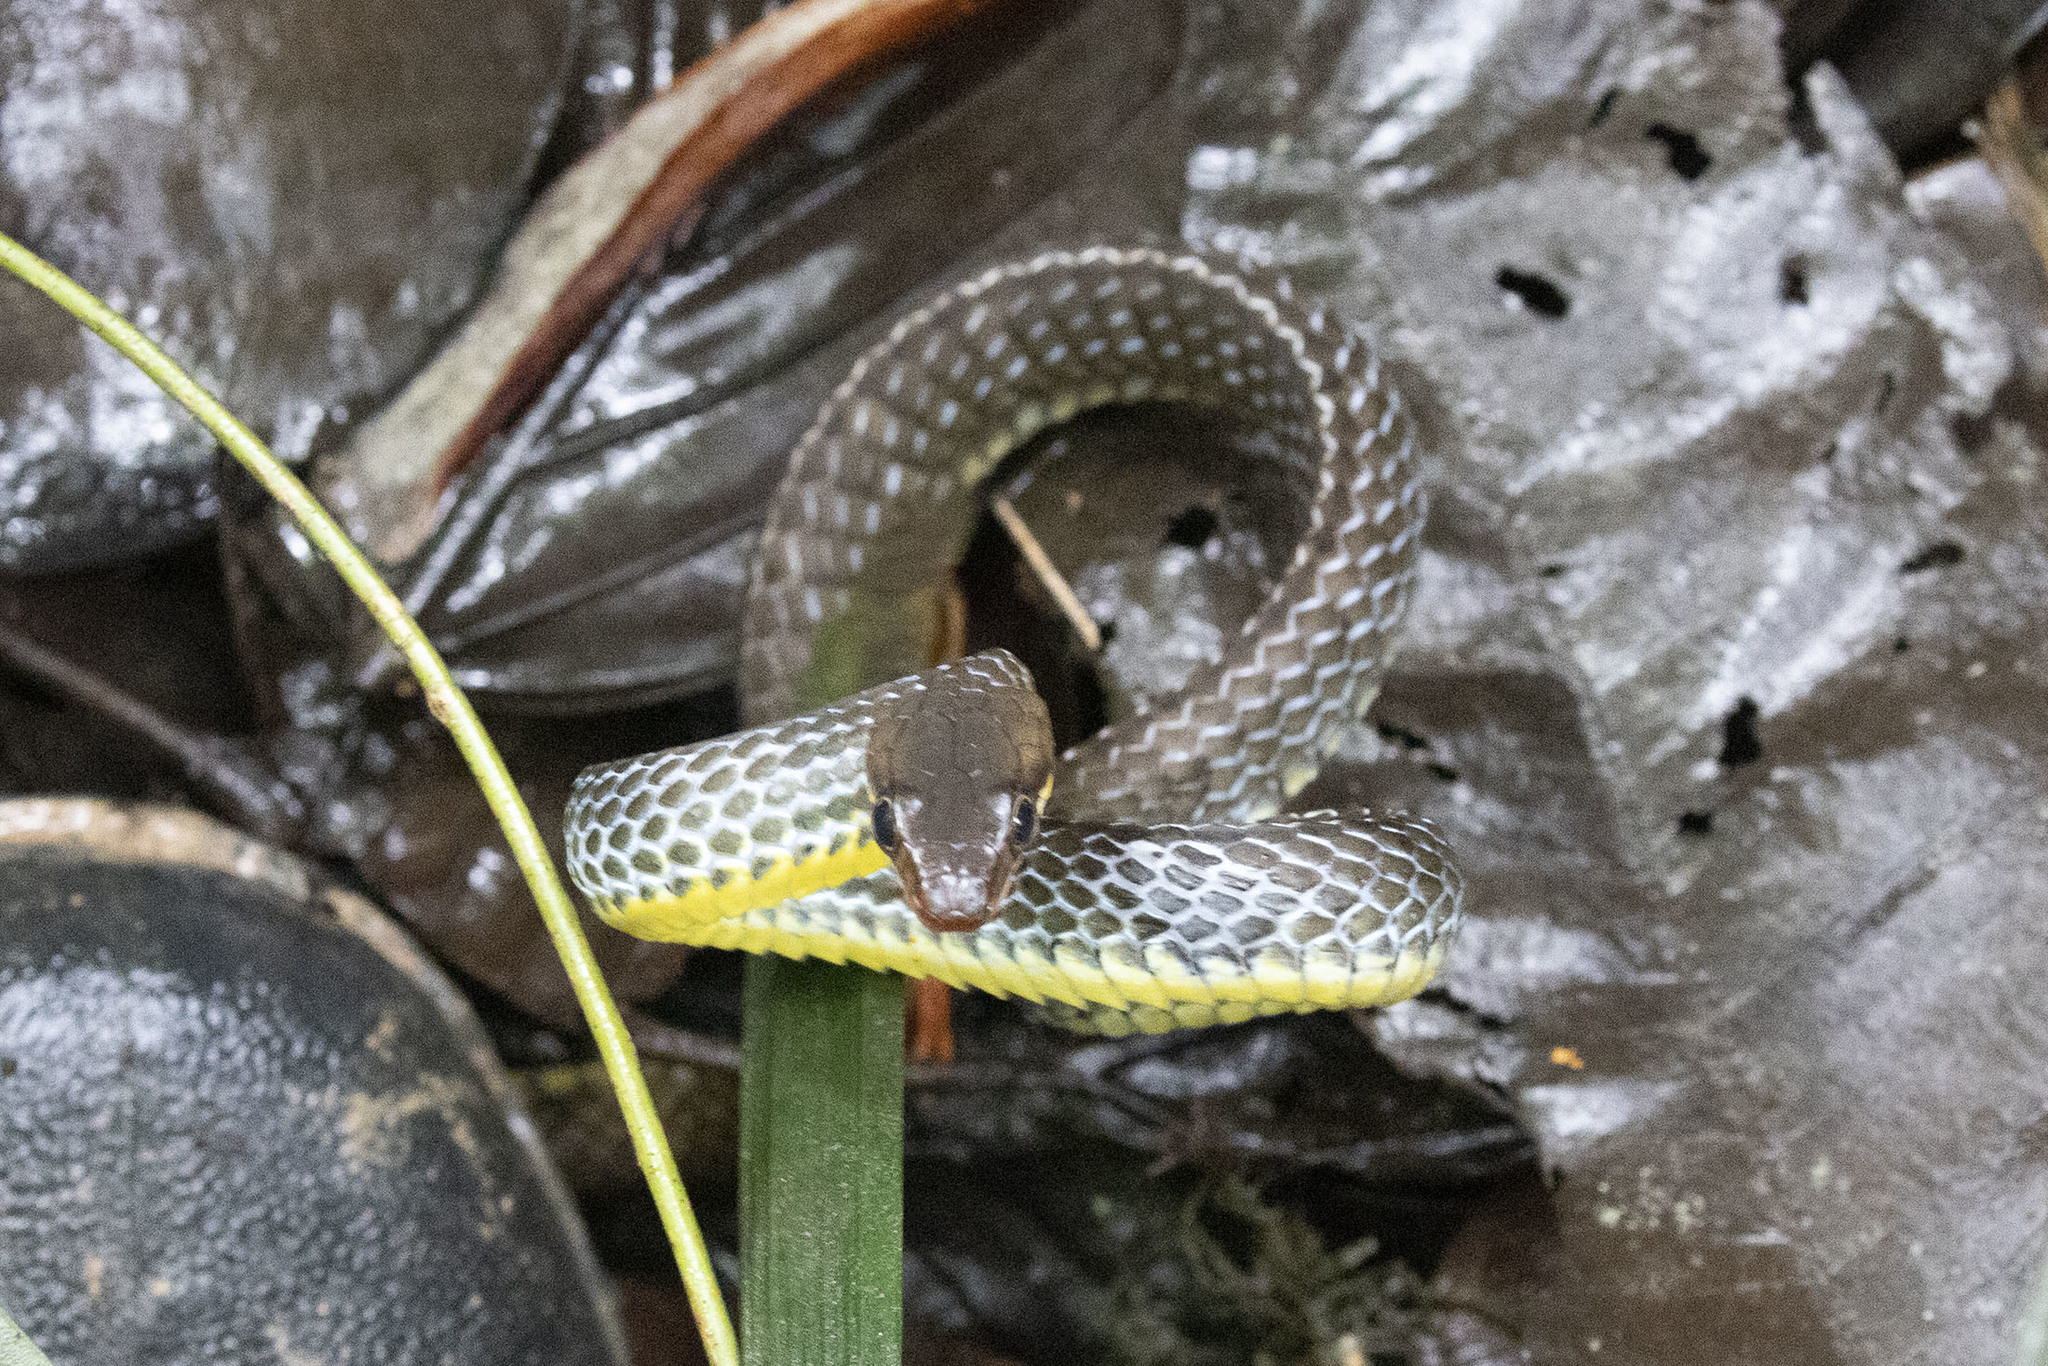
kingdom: Animalia
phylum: Chordata
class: Squamata
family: Colubridae
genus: Chironius
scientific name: Chironius fuscus
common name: Brown sipo
